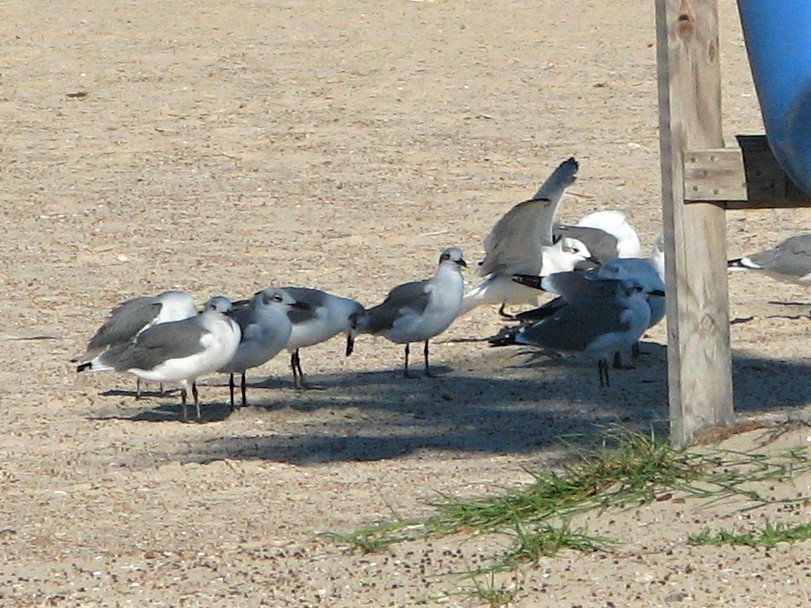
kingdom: Animalia
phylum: Chordata
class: Aves
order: Charadriiformes
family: Laridae
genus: Leucophaeus
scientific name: Leucophaeus atricilla
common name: Laughing gull
